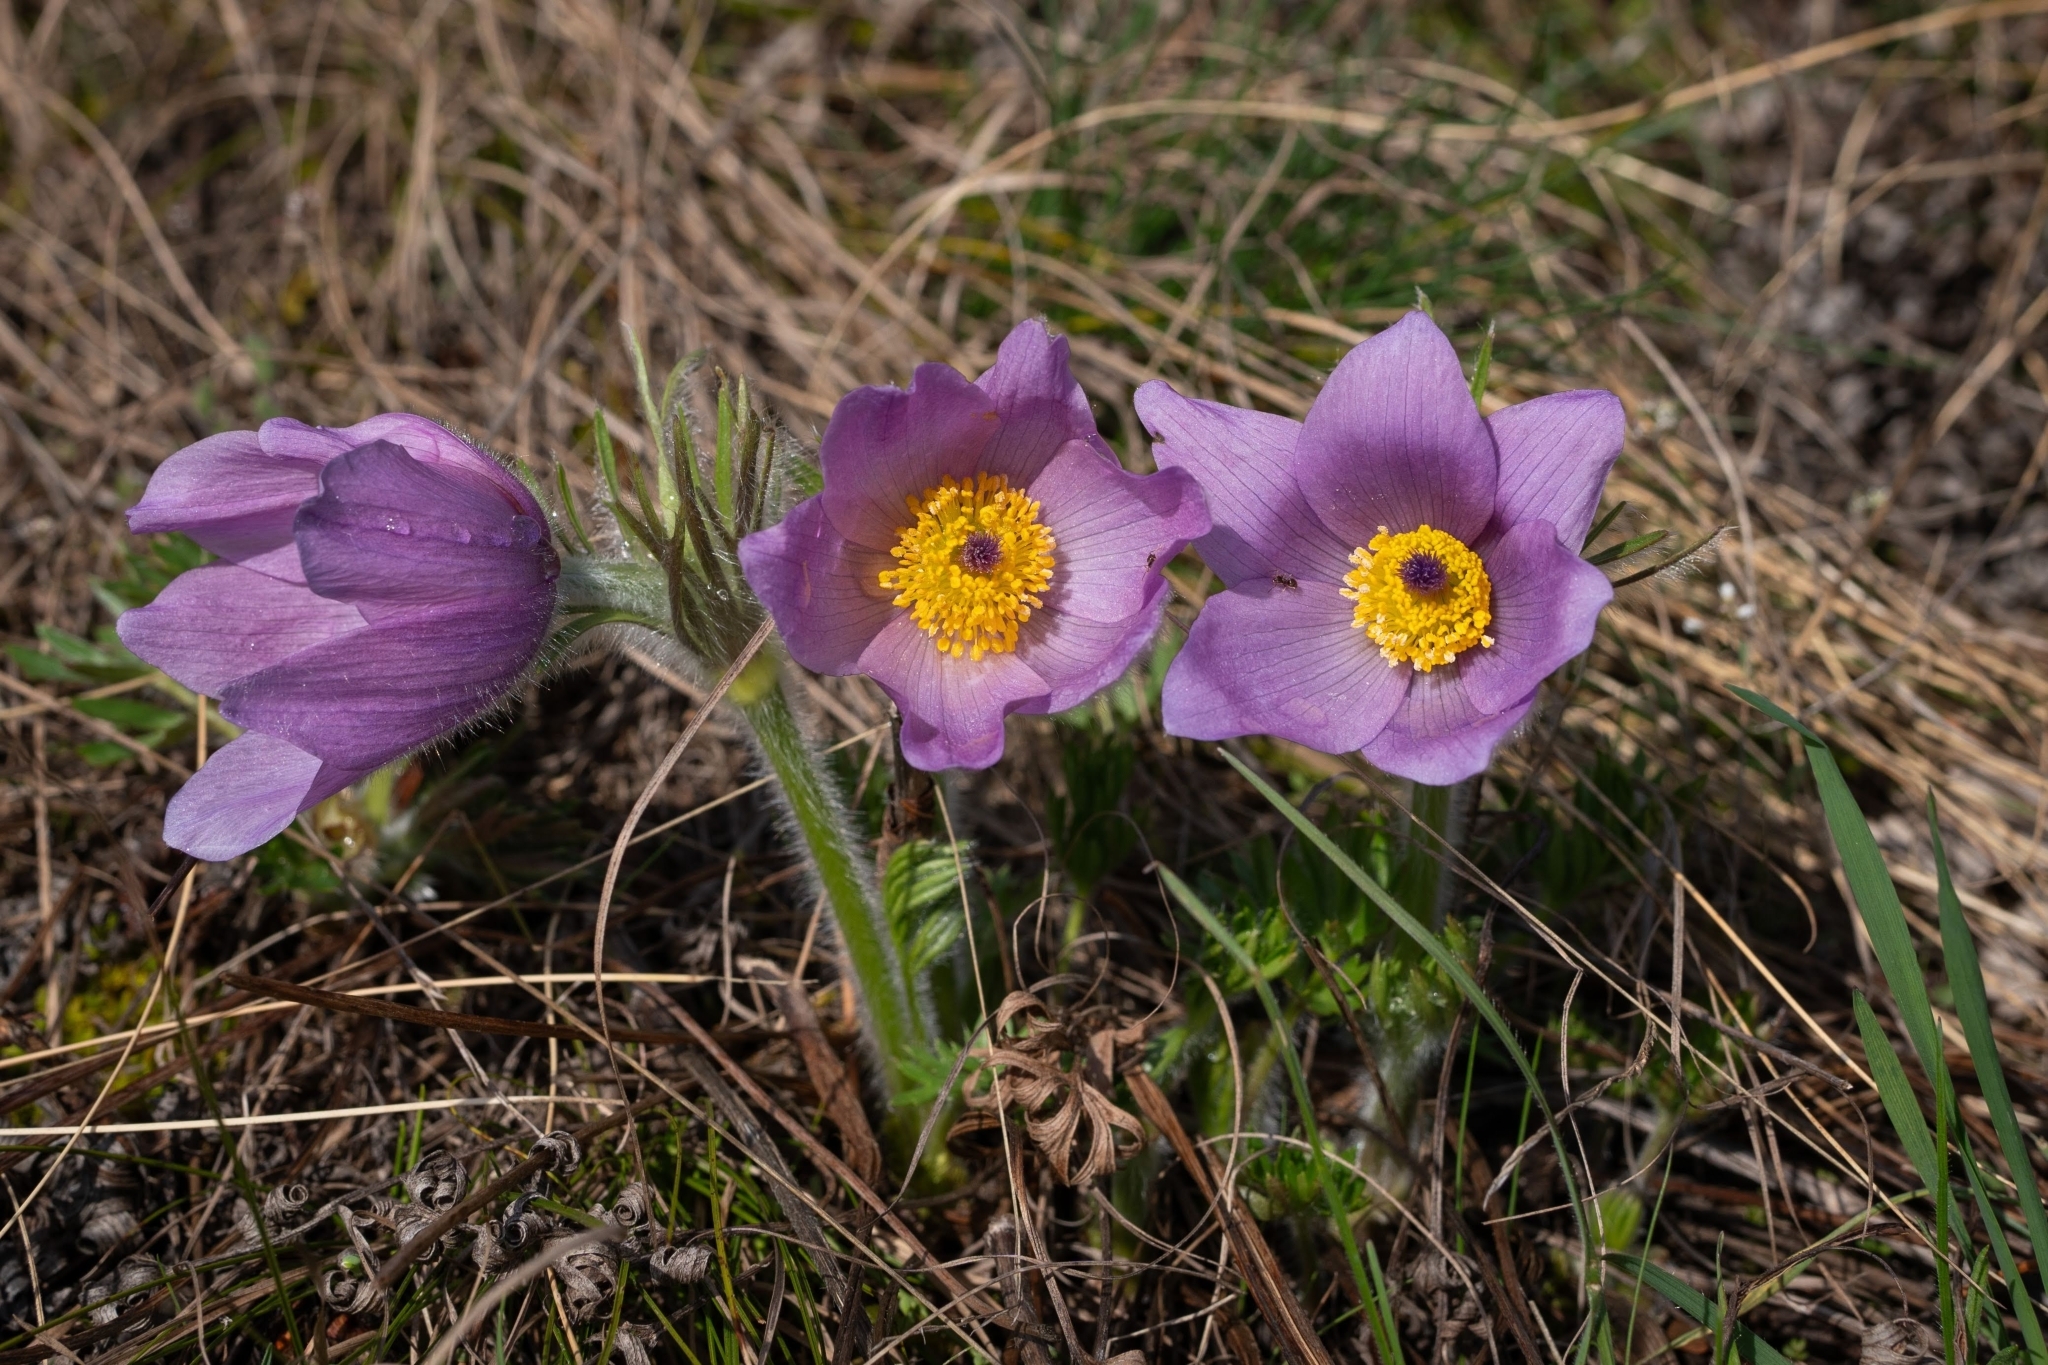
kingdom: Plantae
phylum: Tracheophyta
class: Magnoliopsida
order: Ranunculales
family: Ranunculaceae
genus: Pulsatilla
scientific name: Pulsatilla grandis
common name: Greater pasque flower
